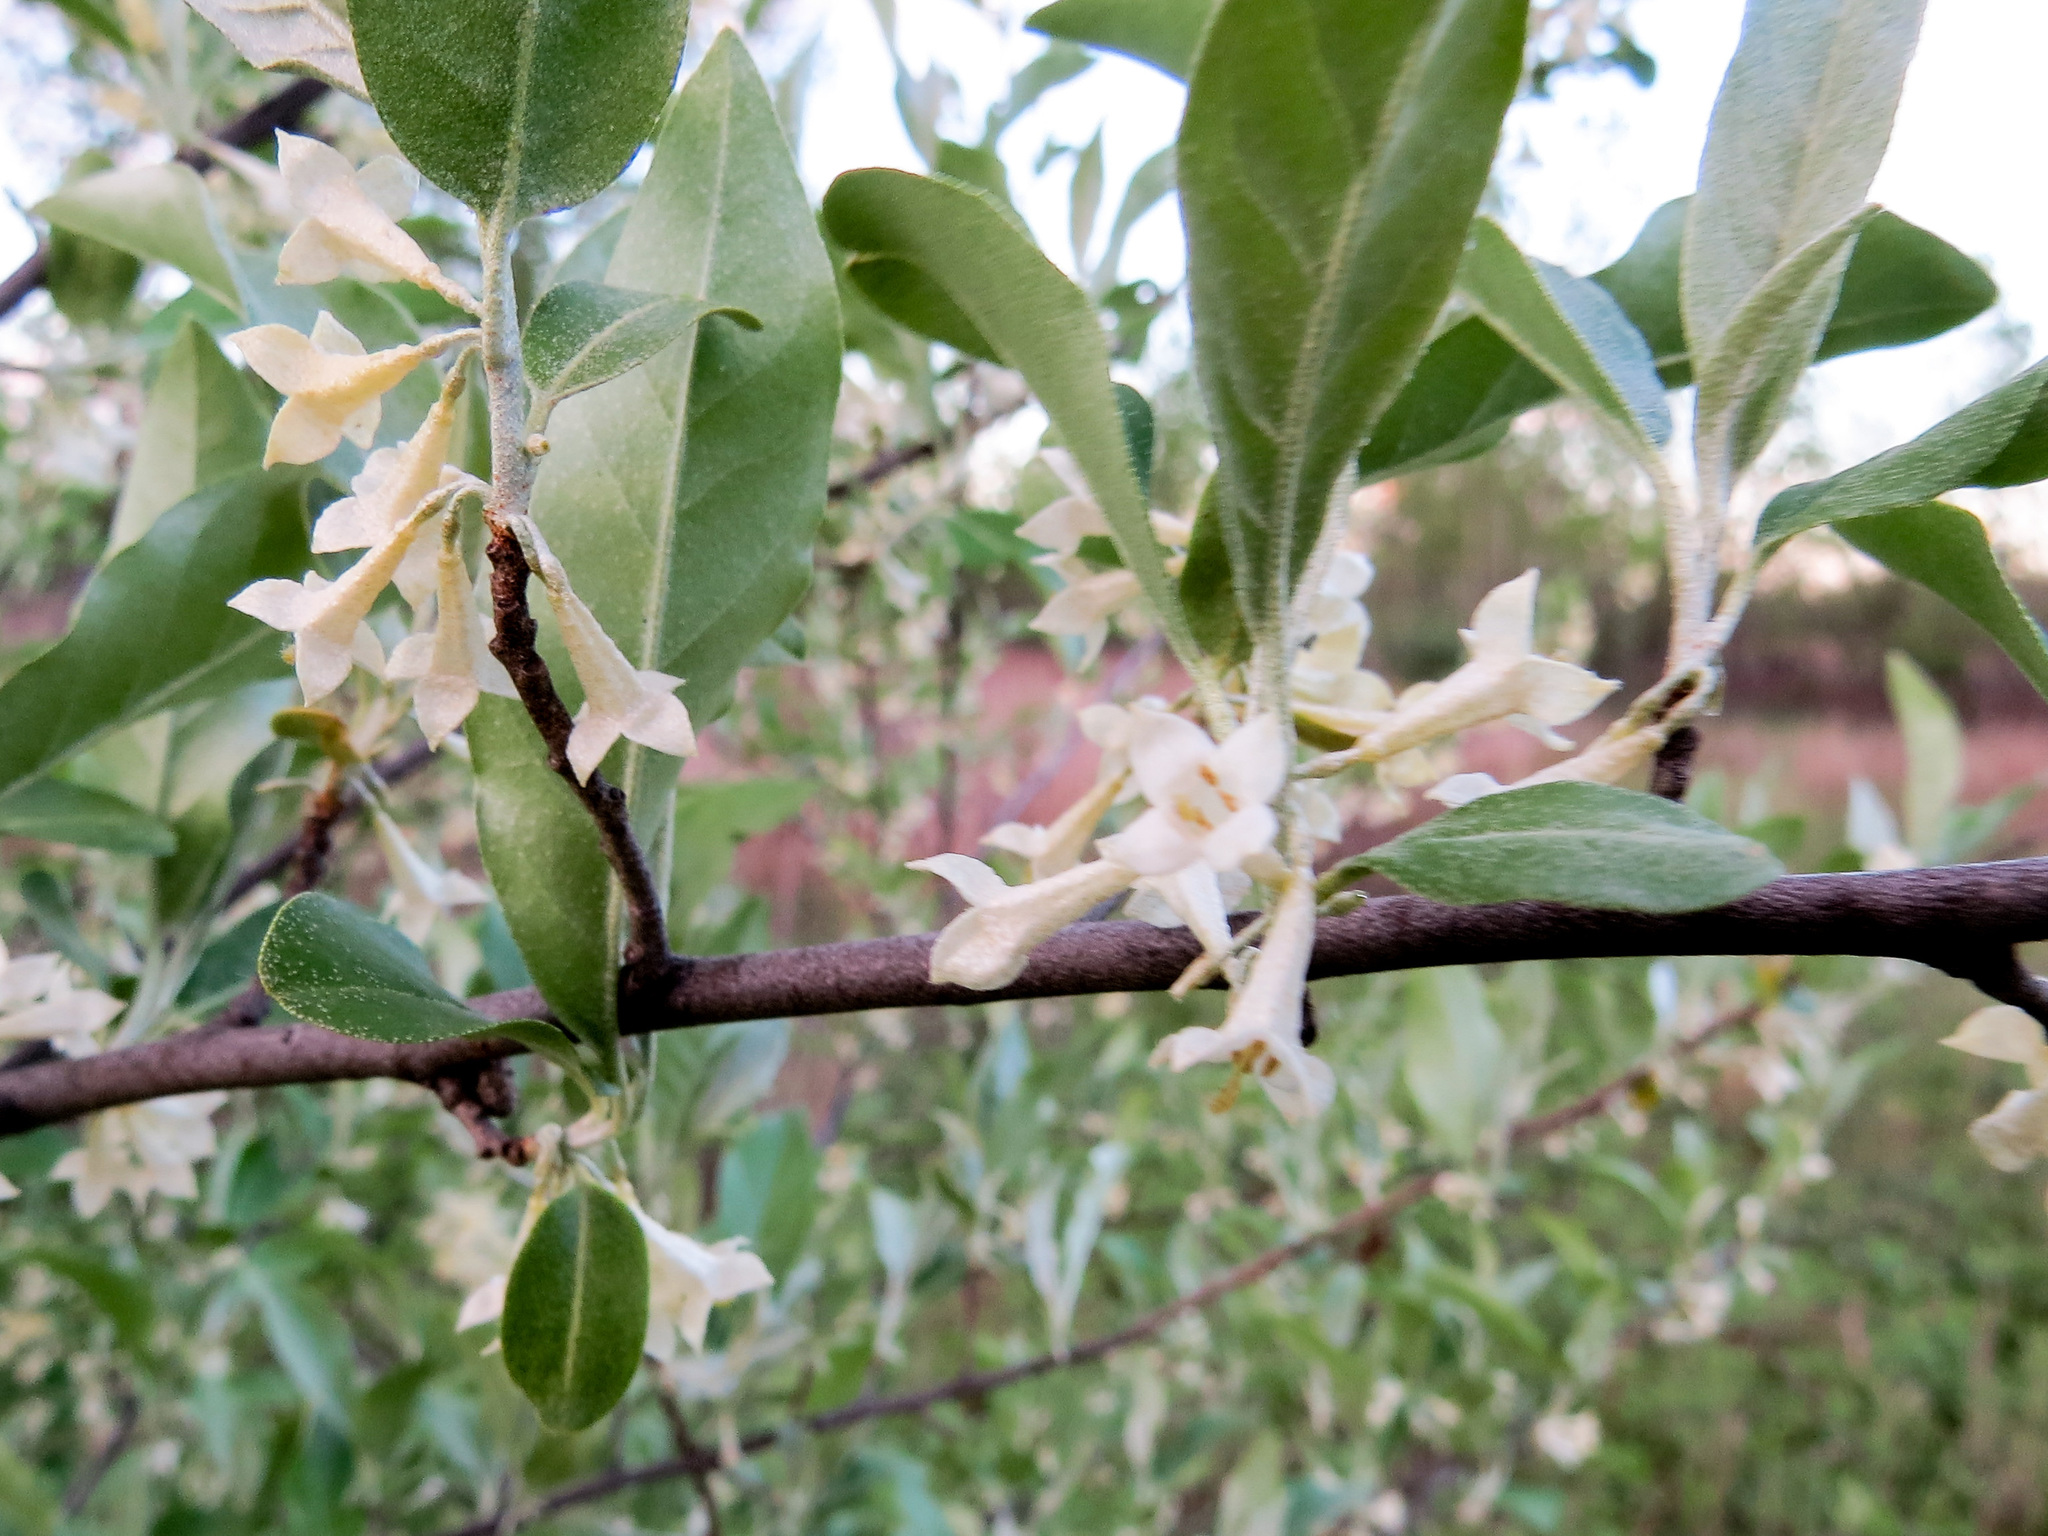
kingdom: Plantae
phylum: Tracheophyta
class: Magnoliopsida
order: Rosales
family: Elaeagnaceae
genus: Elaeagnus
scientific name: Elaeagnus umbellata
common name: Autumn olive
